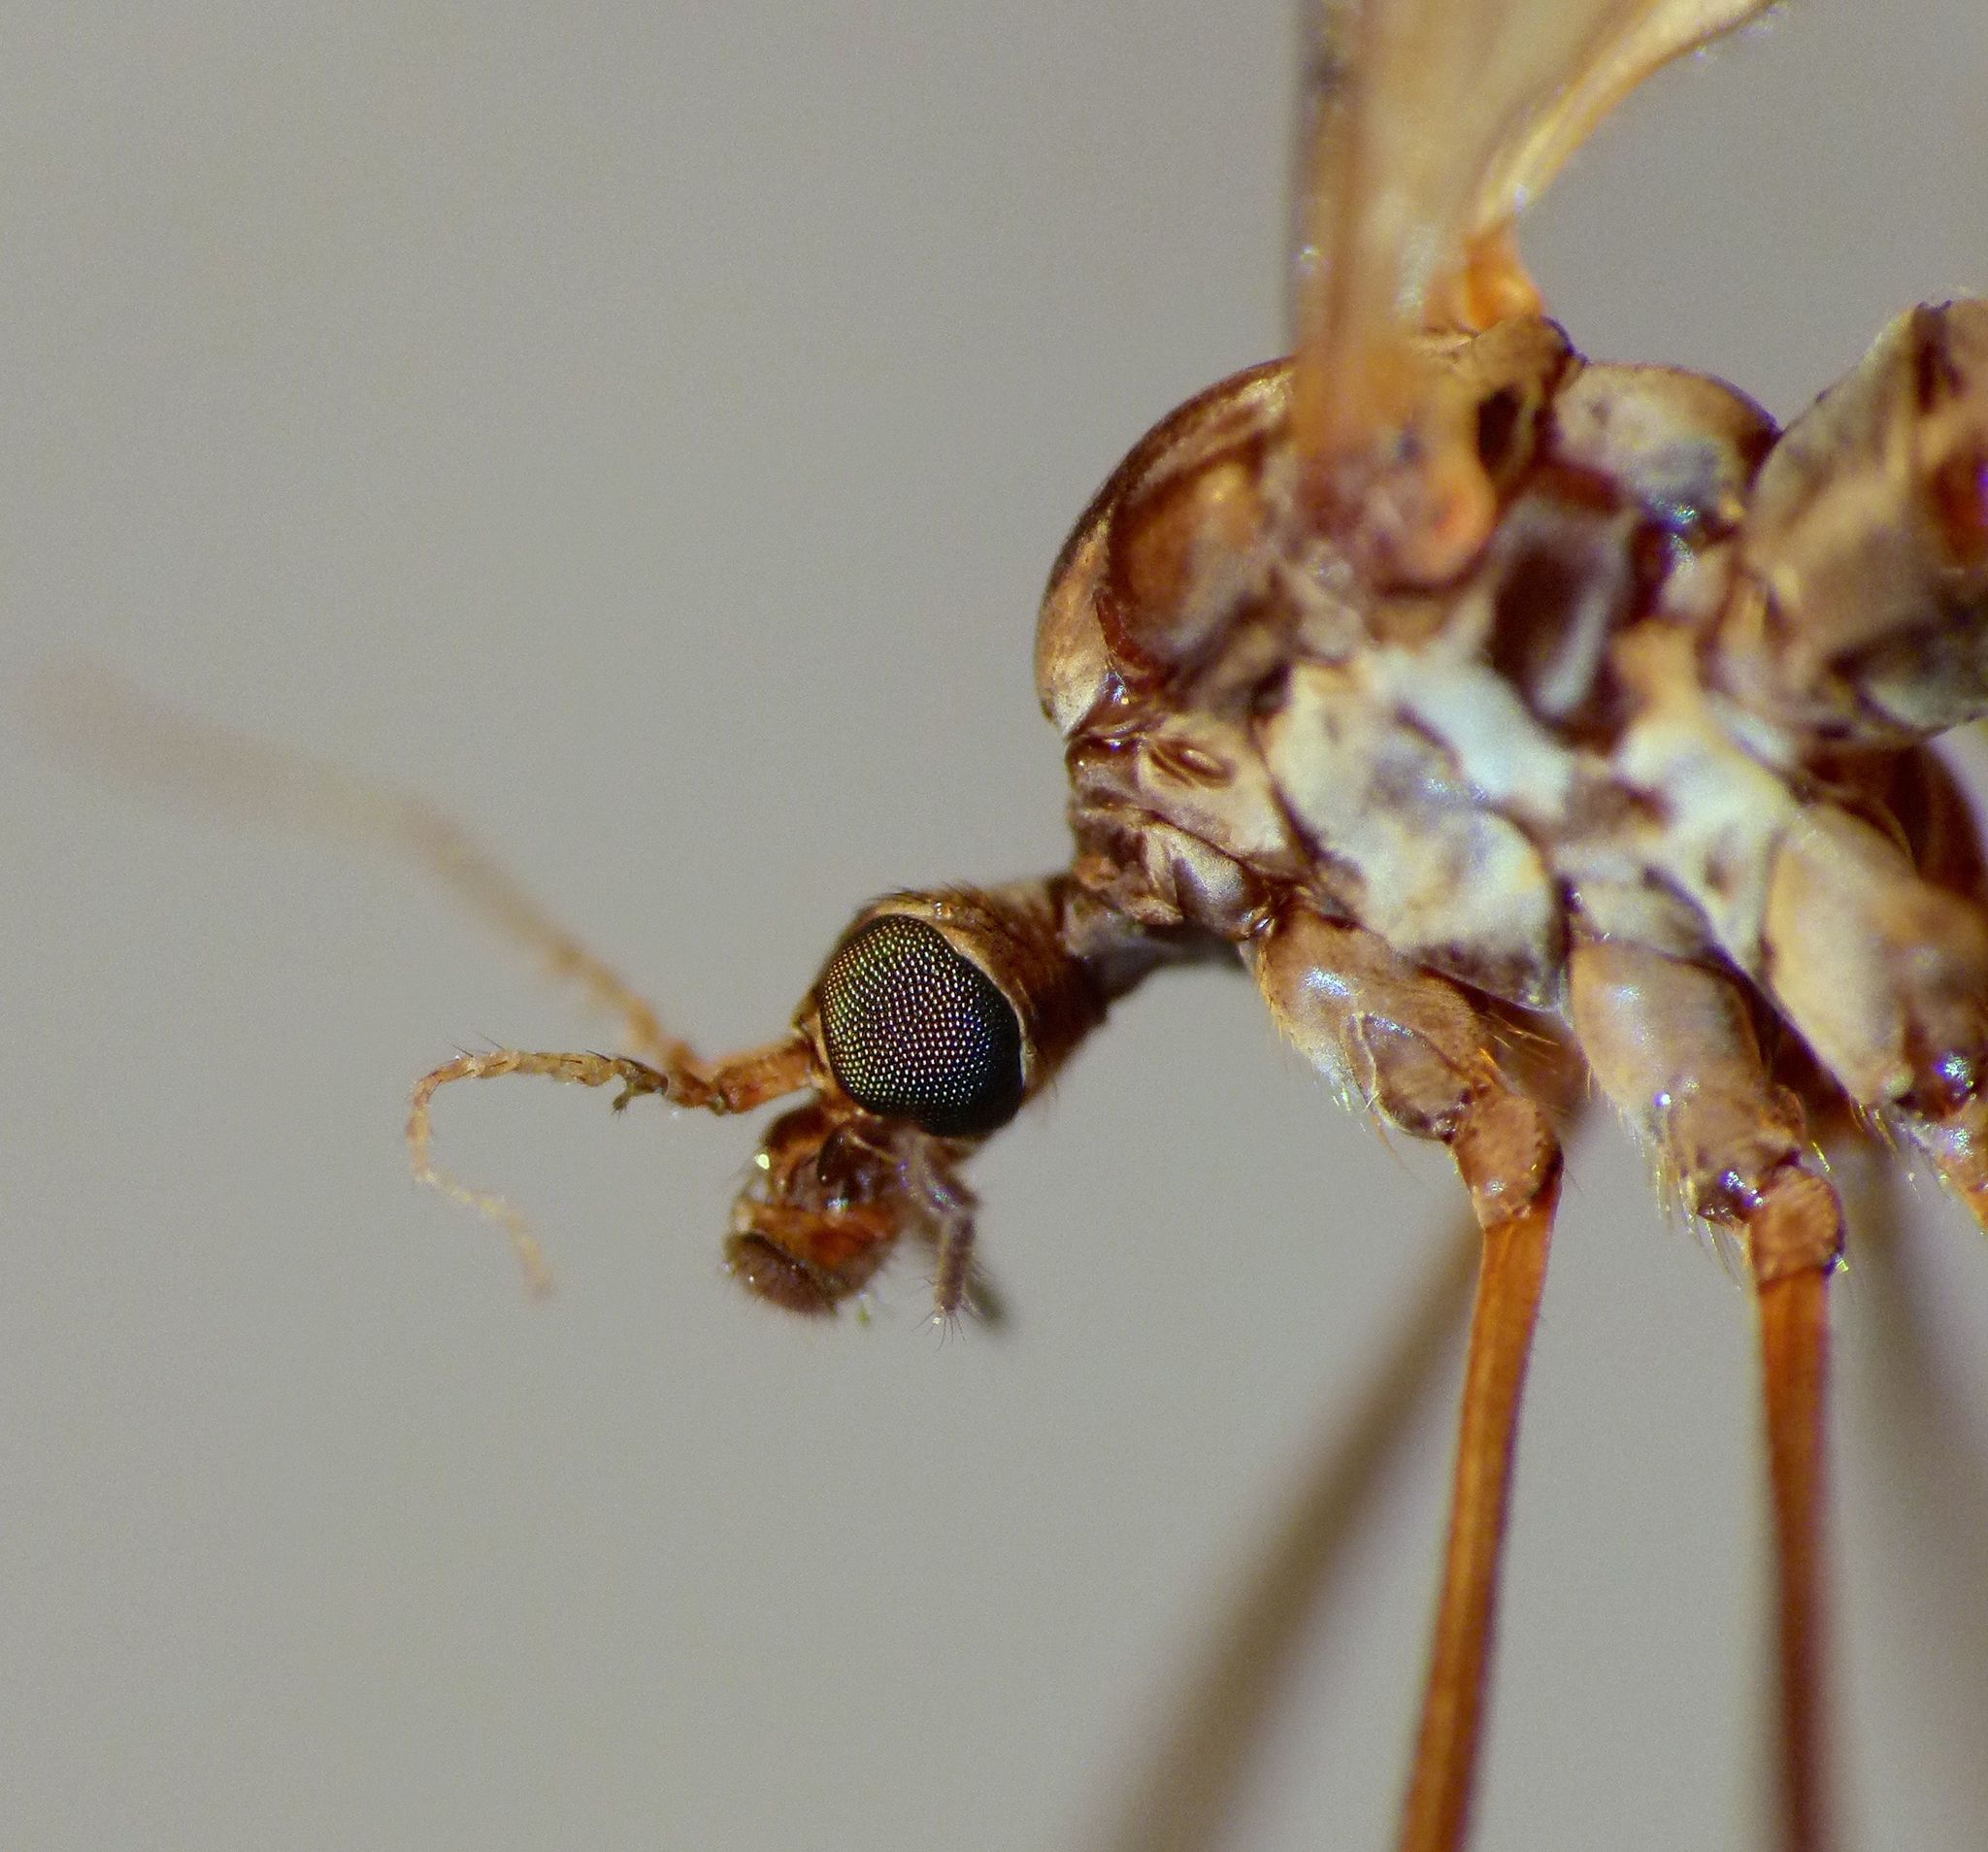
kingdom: Animalia
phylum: Arthropoda
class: Insecta
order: Diptera
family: Limoniidae
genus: Gynoplistia
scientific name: Gynoplistia notata
